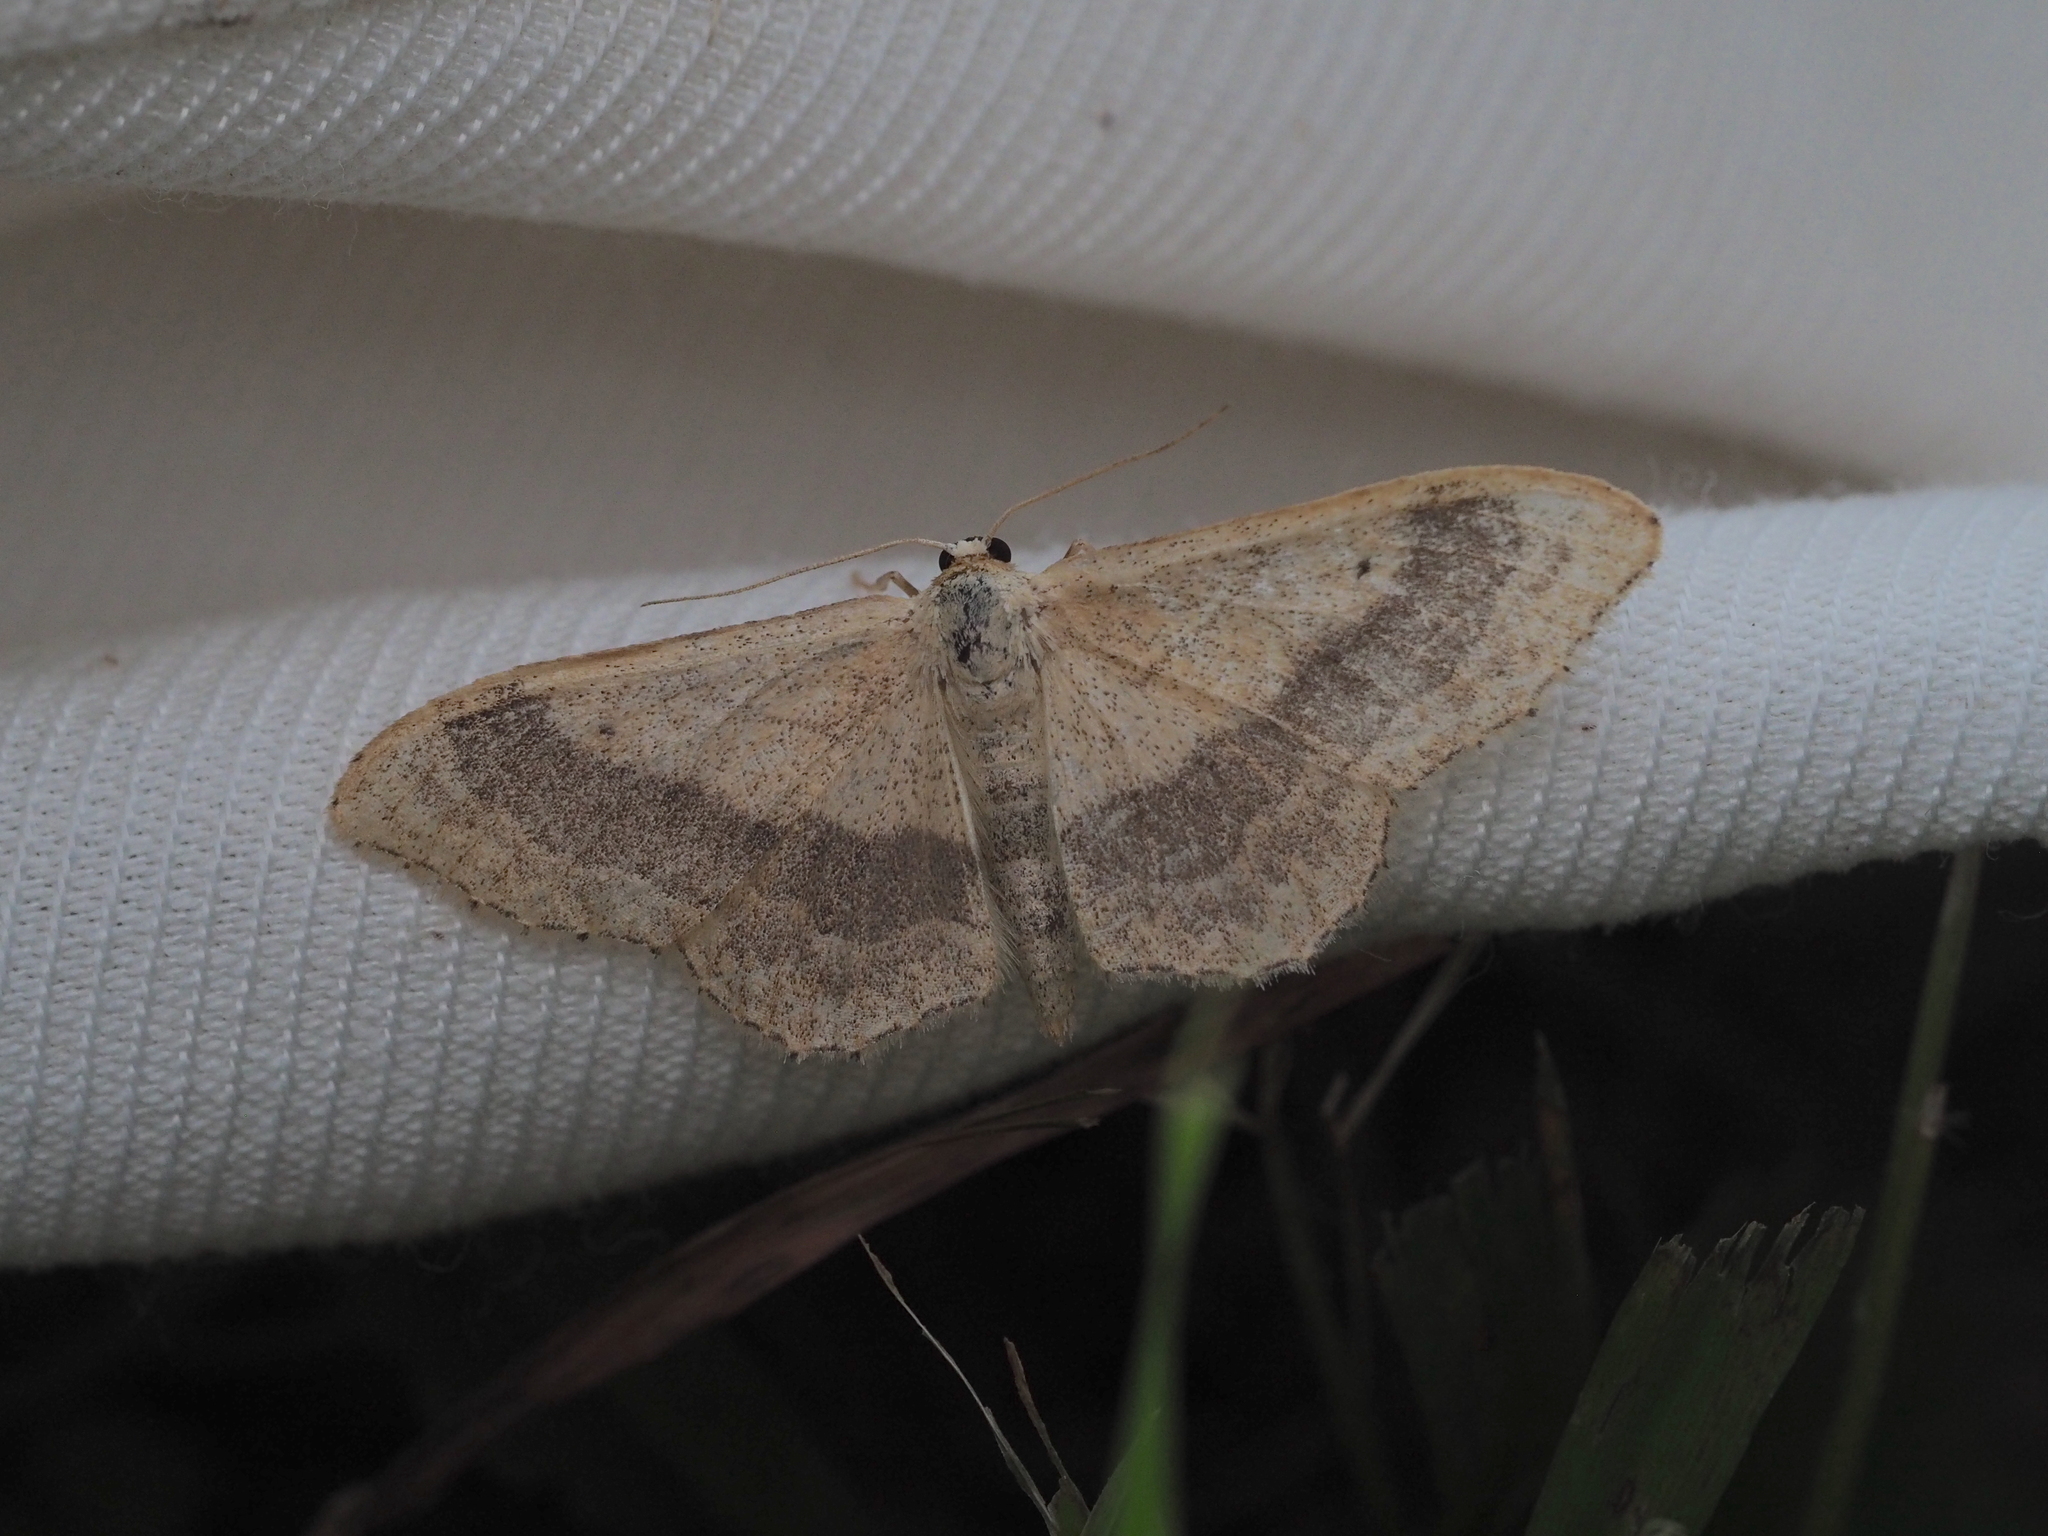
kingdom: Animalia
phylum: Arthropoda
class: Insecta
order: Lepidoptera
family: Geometridae
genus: Idaea
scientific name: Idaea aversata
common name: Riband wave
